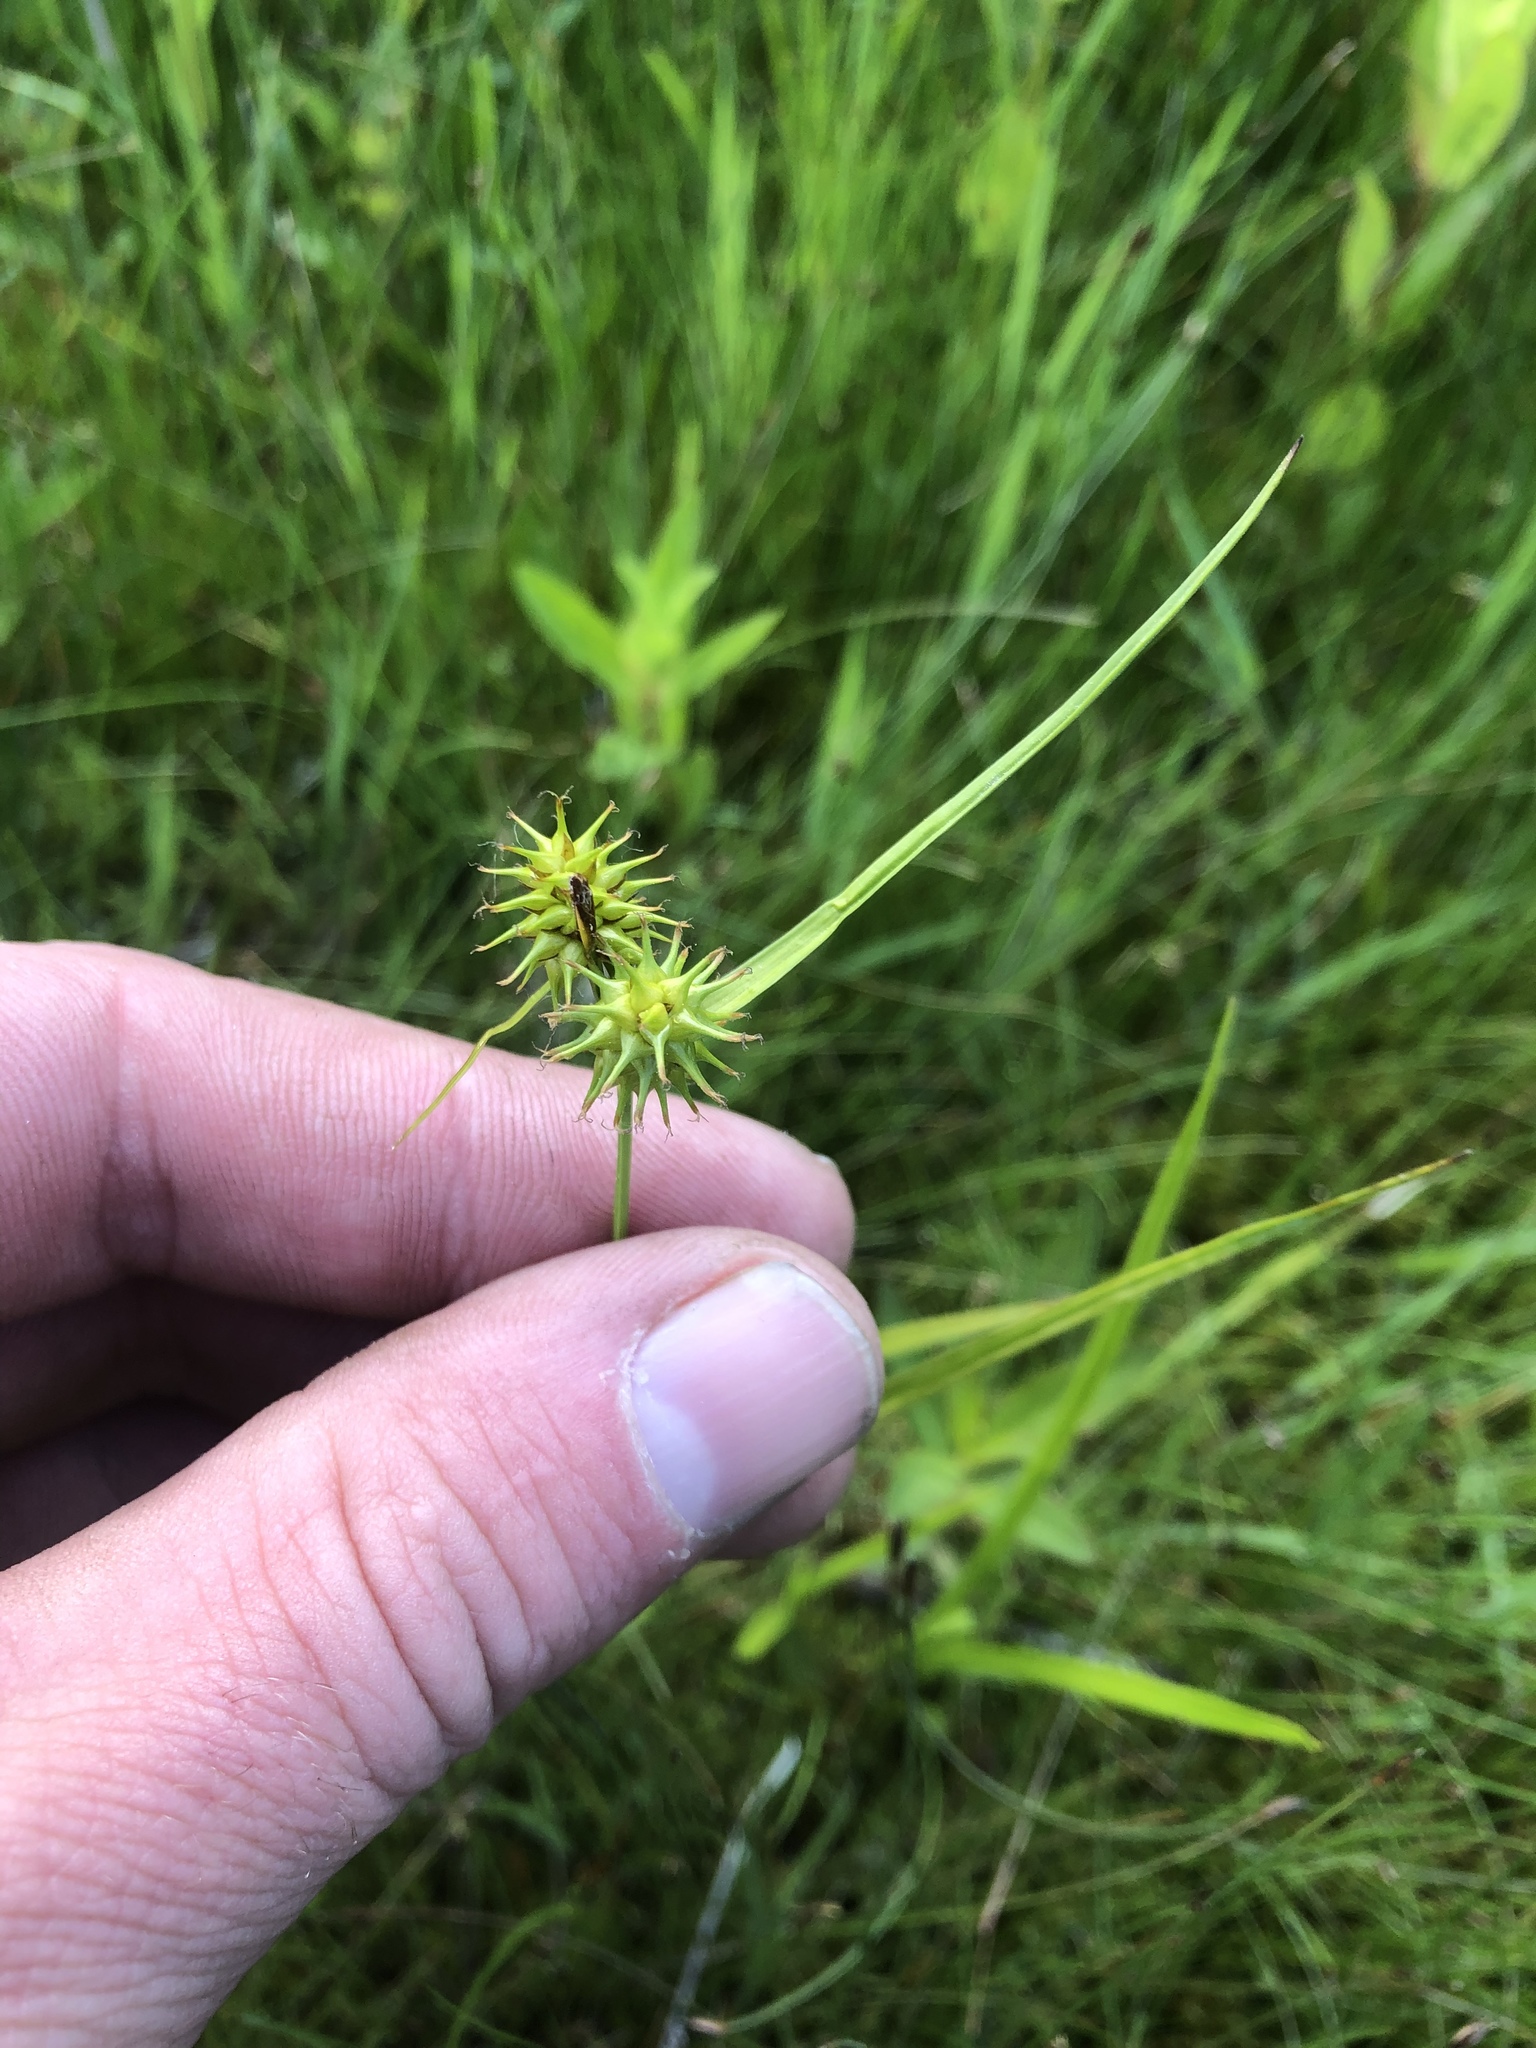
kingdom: Plantae
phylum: Tracheophyta
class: Liliopsida
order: Poales
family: Cyperaceae
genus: Carex
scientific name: Carex flava
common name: Large yellow-sedge
